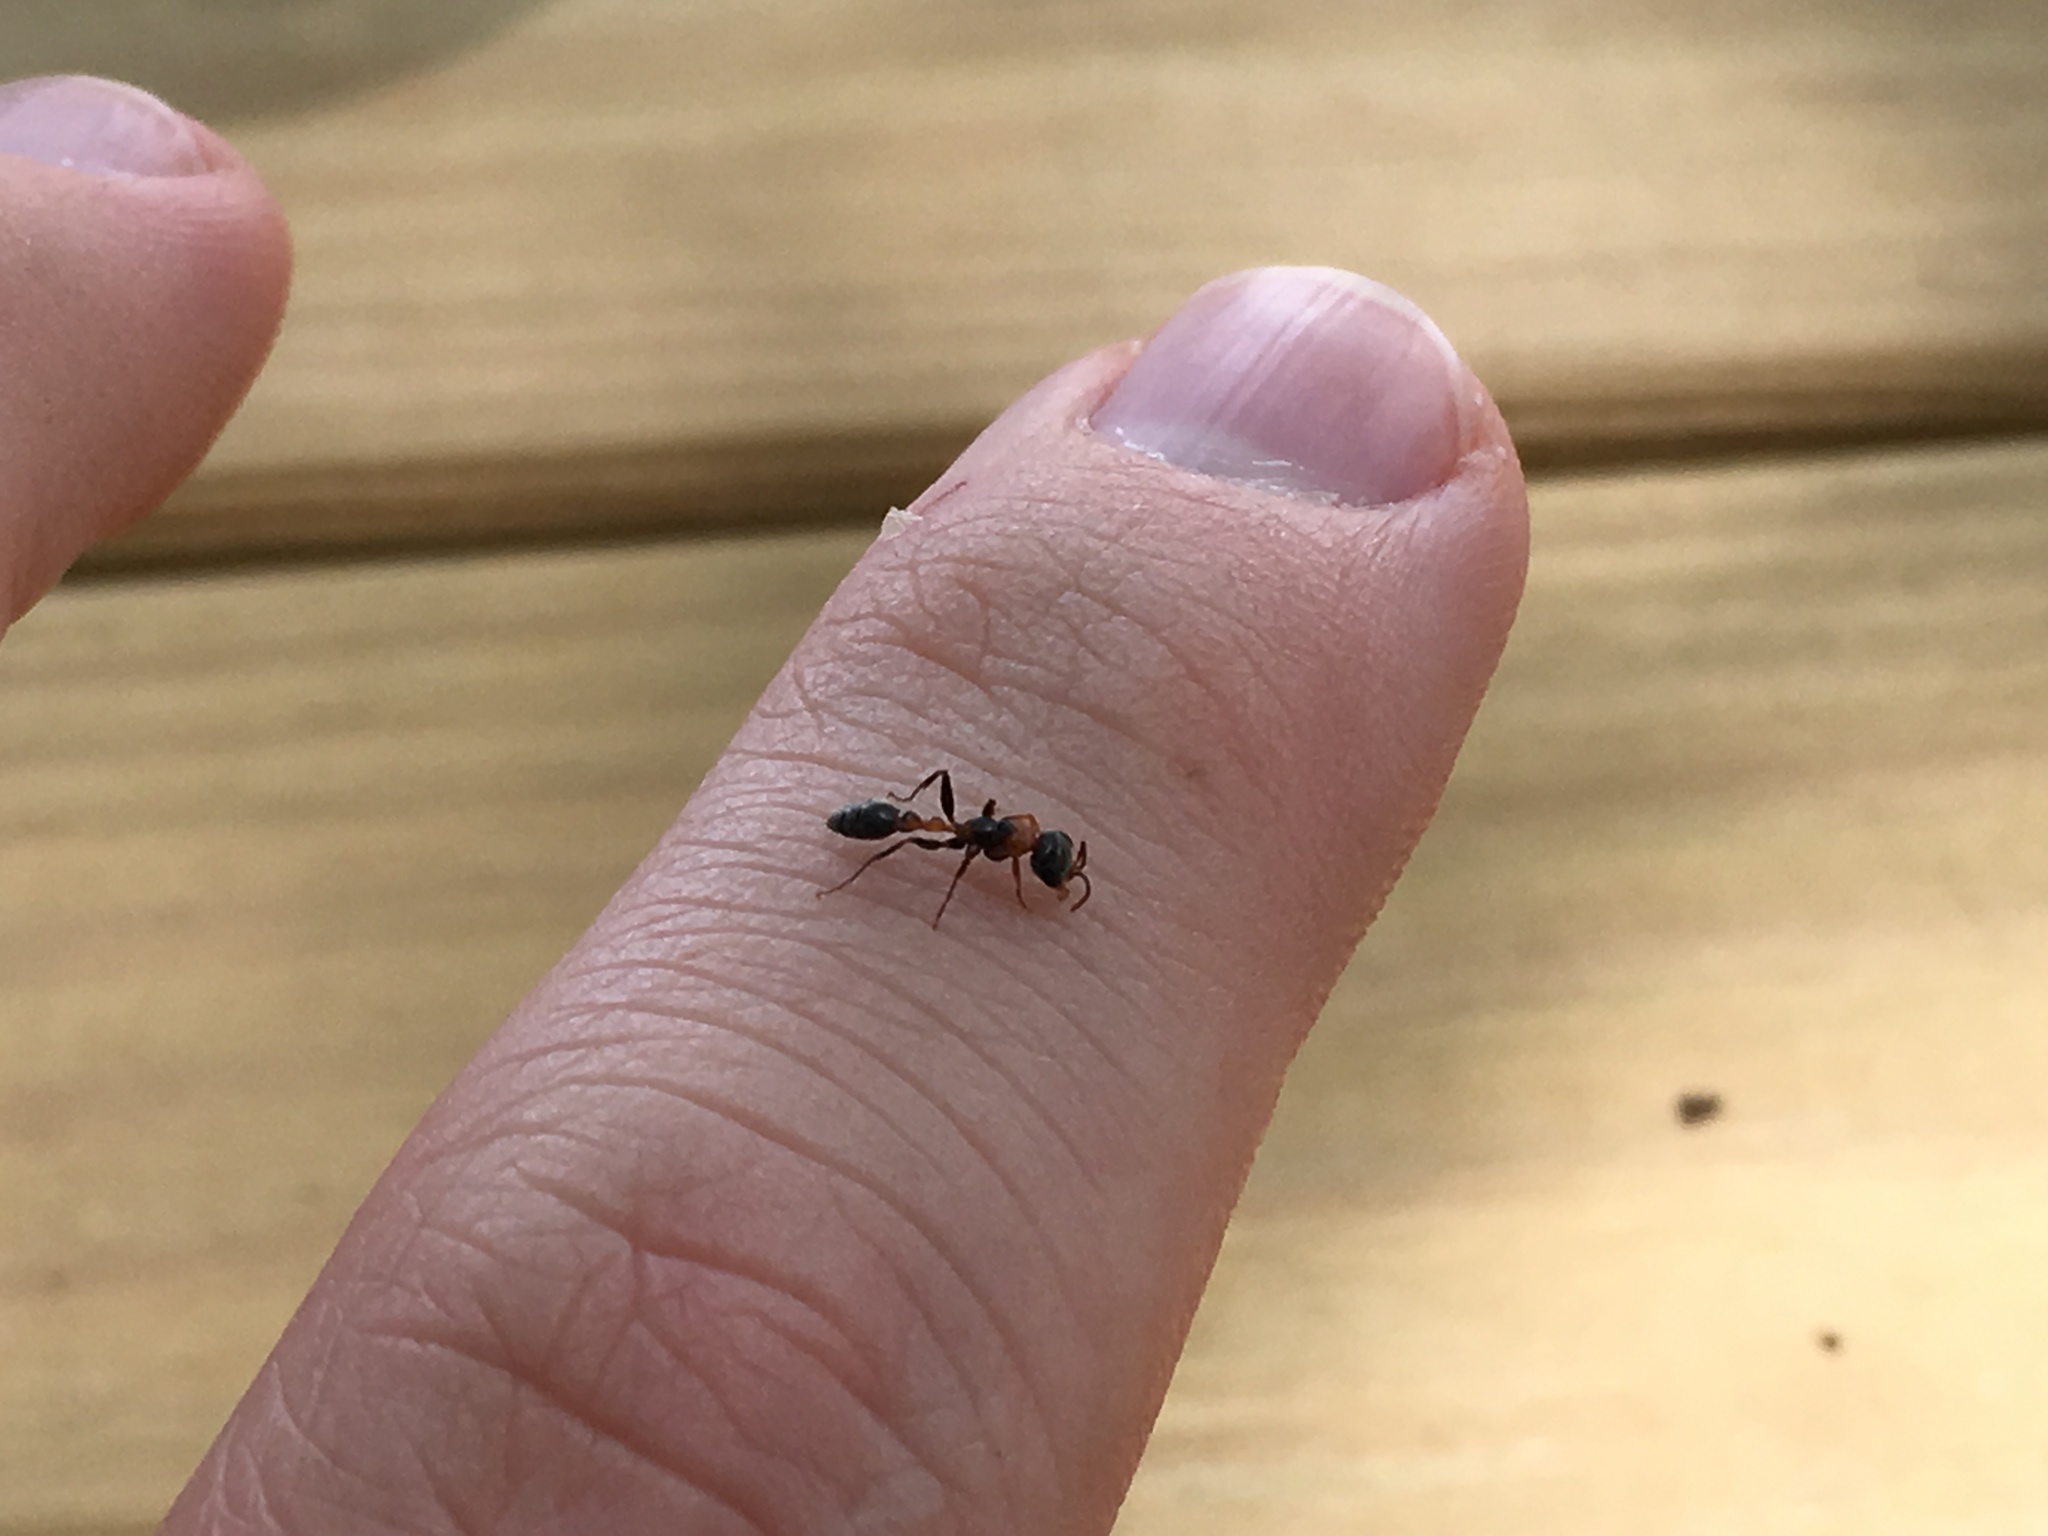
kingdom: Animalia
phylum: Arthropoda
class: Insecta
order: Hymenoptera
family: Formicidae
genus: Pseudomyrmex
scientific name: Pseudomyrmex gracilis
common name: Graceful twig ant
